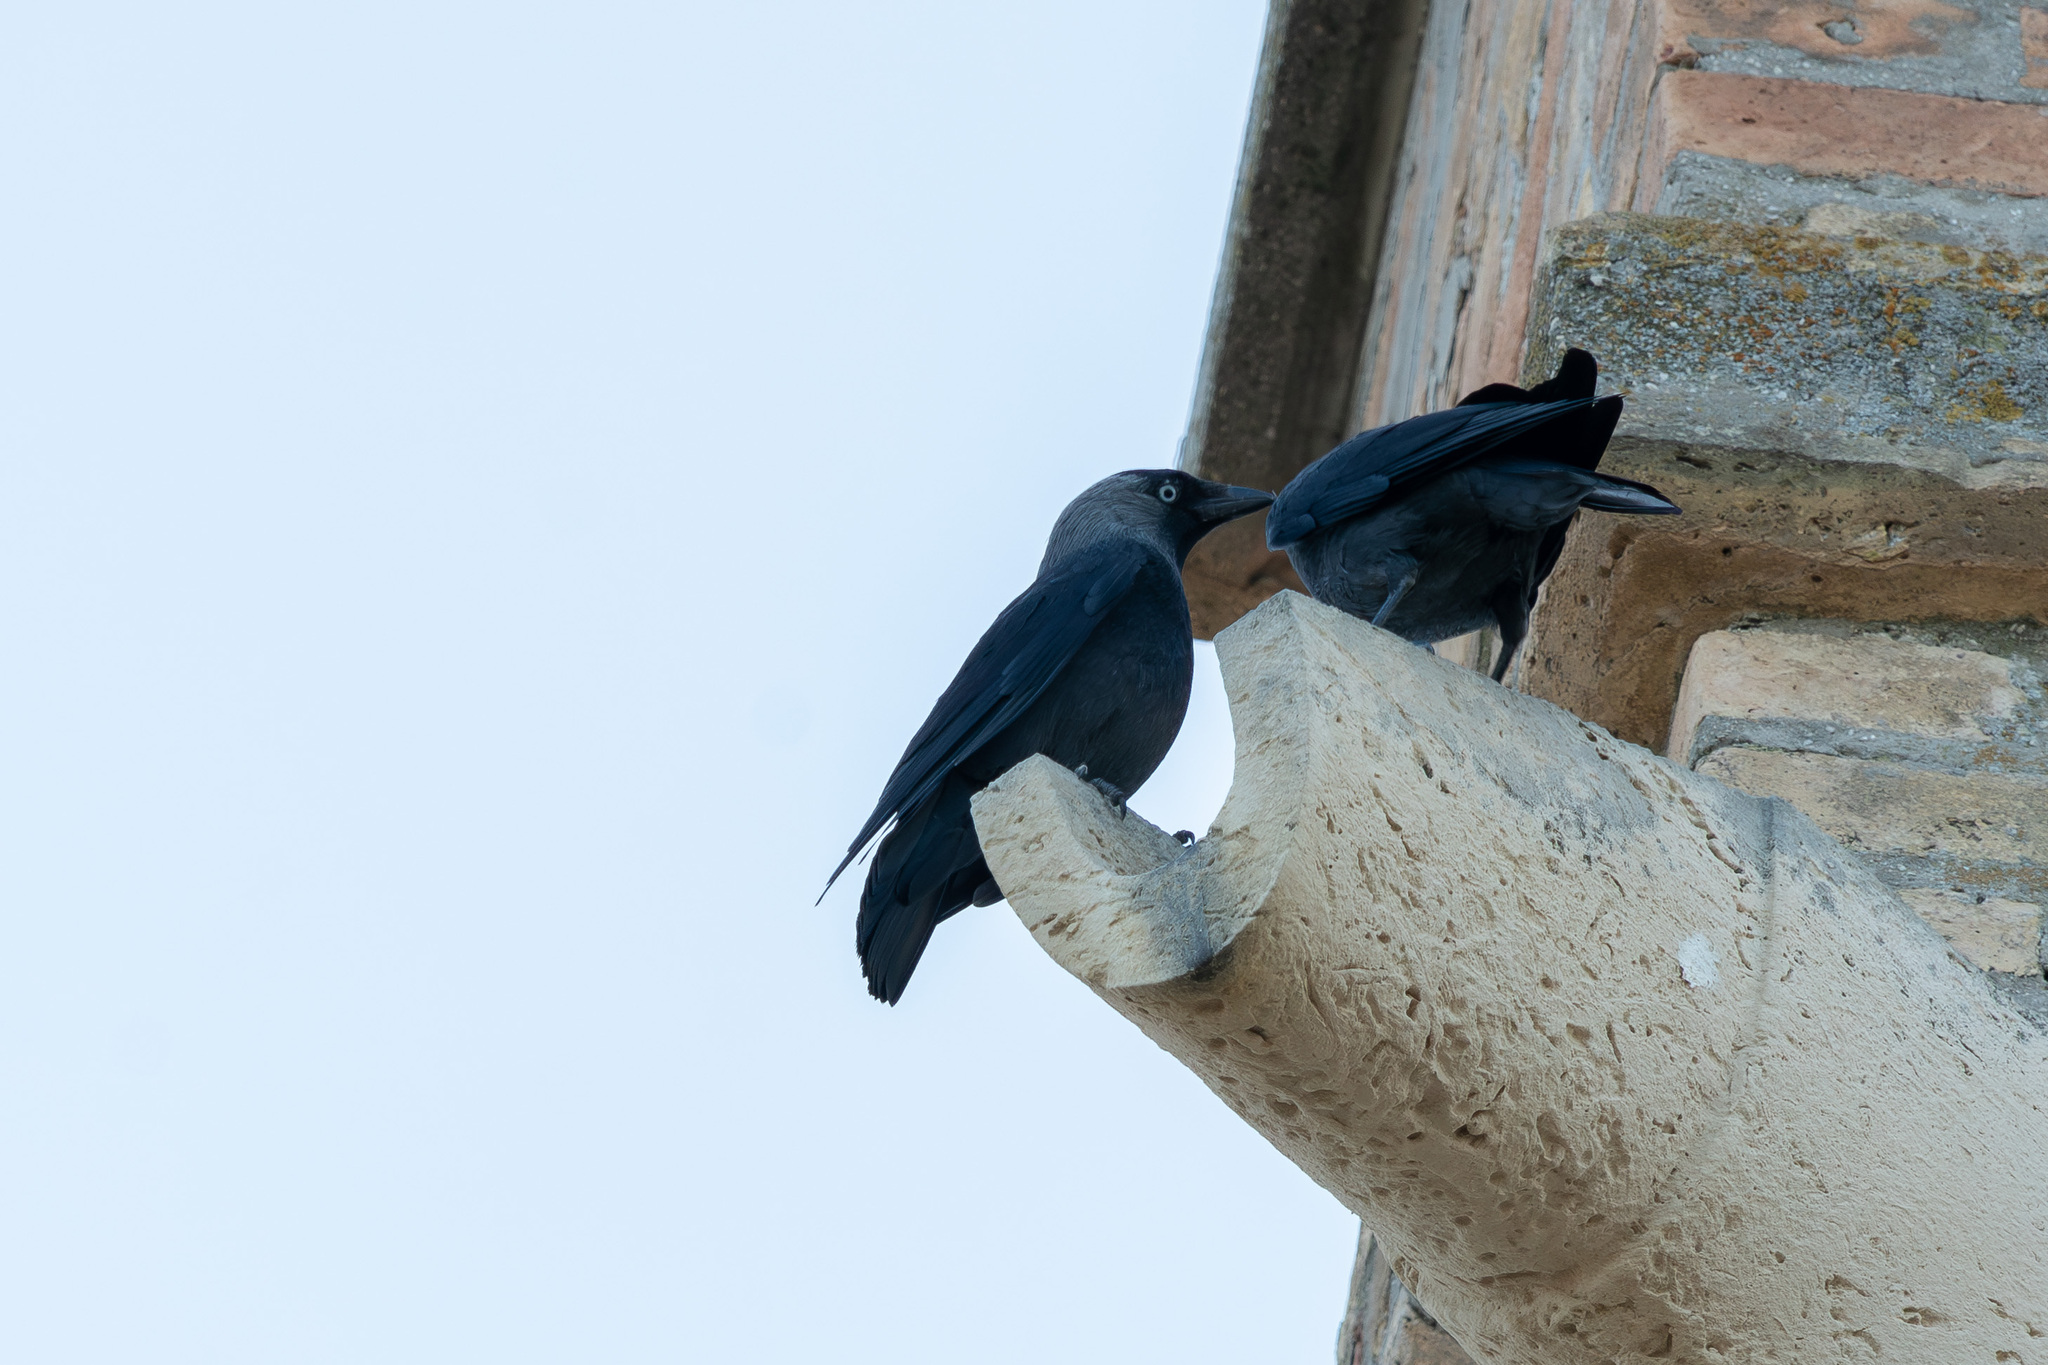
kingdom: Animalia
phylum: Chordata
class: Aves
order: Passeriformes
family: Corvidae
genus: Coloeus
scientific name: Coloeus monedula
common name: Western jackdaw
